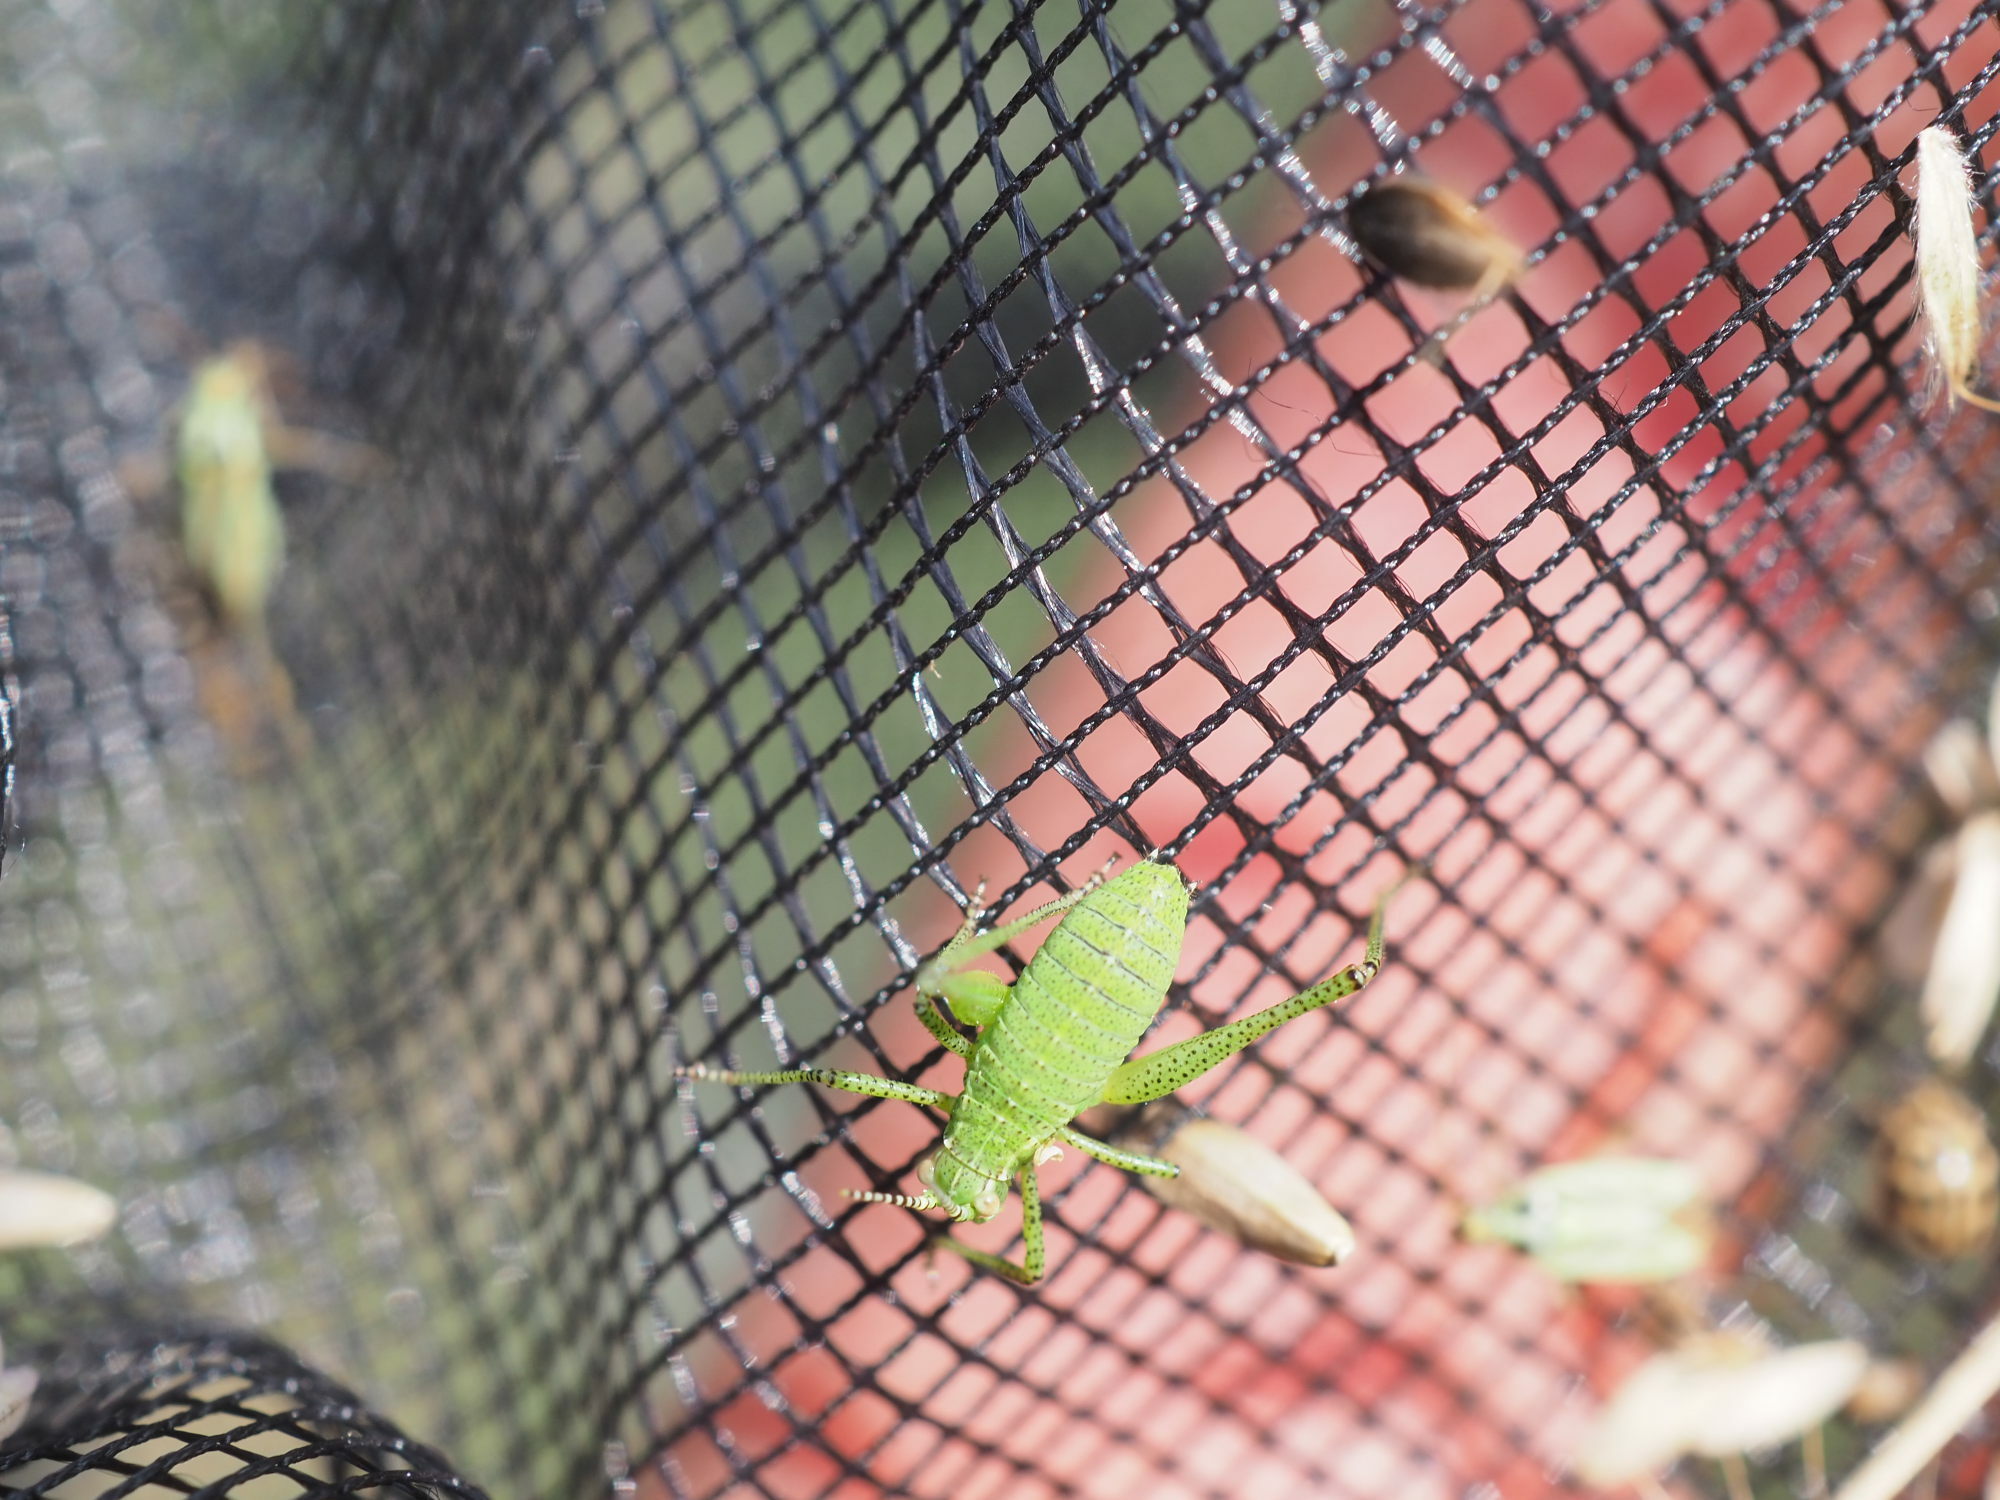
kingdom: Animalia
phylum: Arthropoda
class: Insecta
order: Orthoptera
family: Tettigoniidae
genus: Leptophyes
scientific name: Leptophyes punctatissima
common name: Speckled bush-cricket
